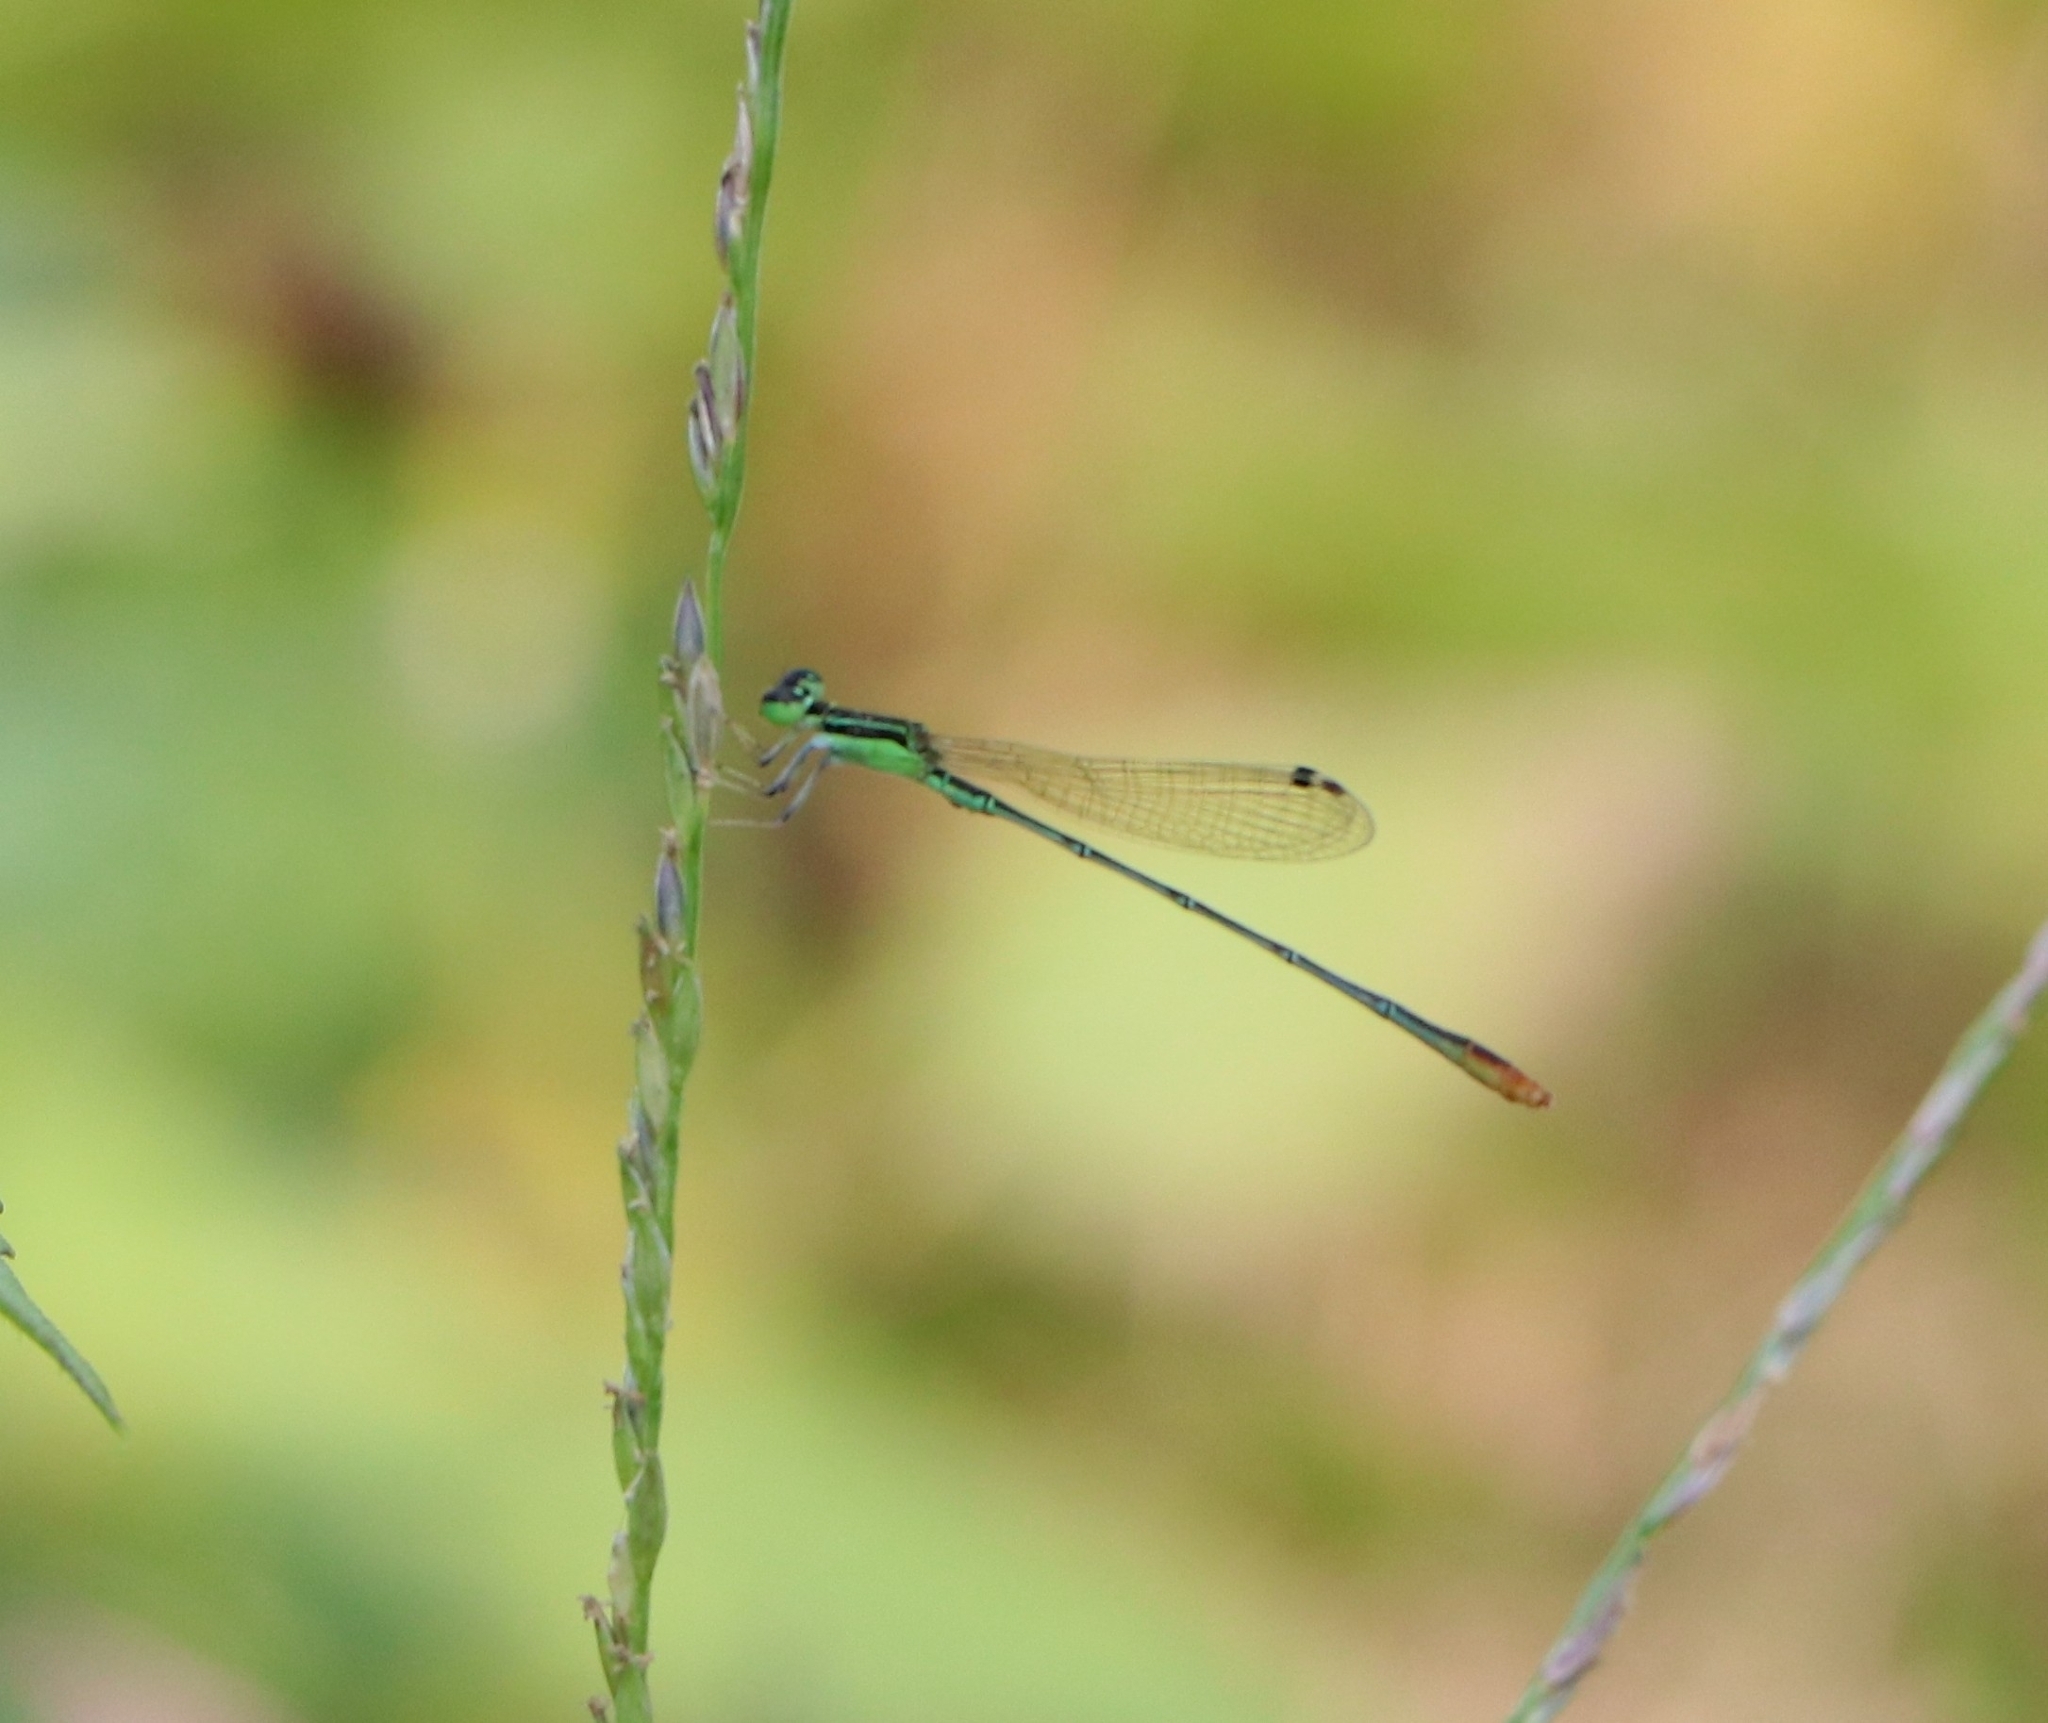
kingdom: Animalia
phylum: Arthropoda
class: Insecta
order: Odonata
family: Coenagrionidae
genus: Agriocnemis
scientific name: Agriocnemis pygmaea
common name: Pygmy wisp
